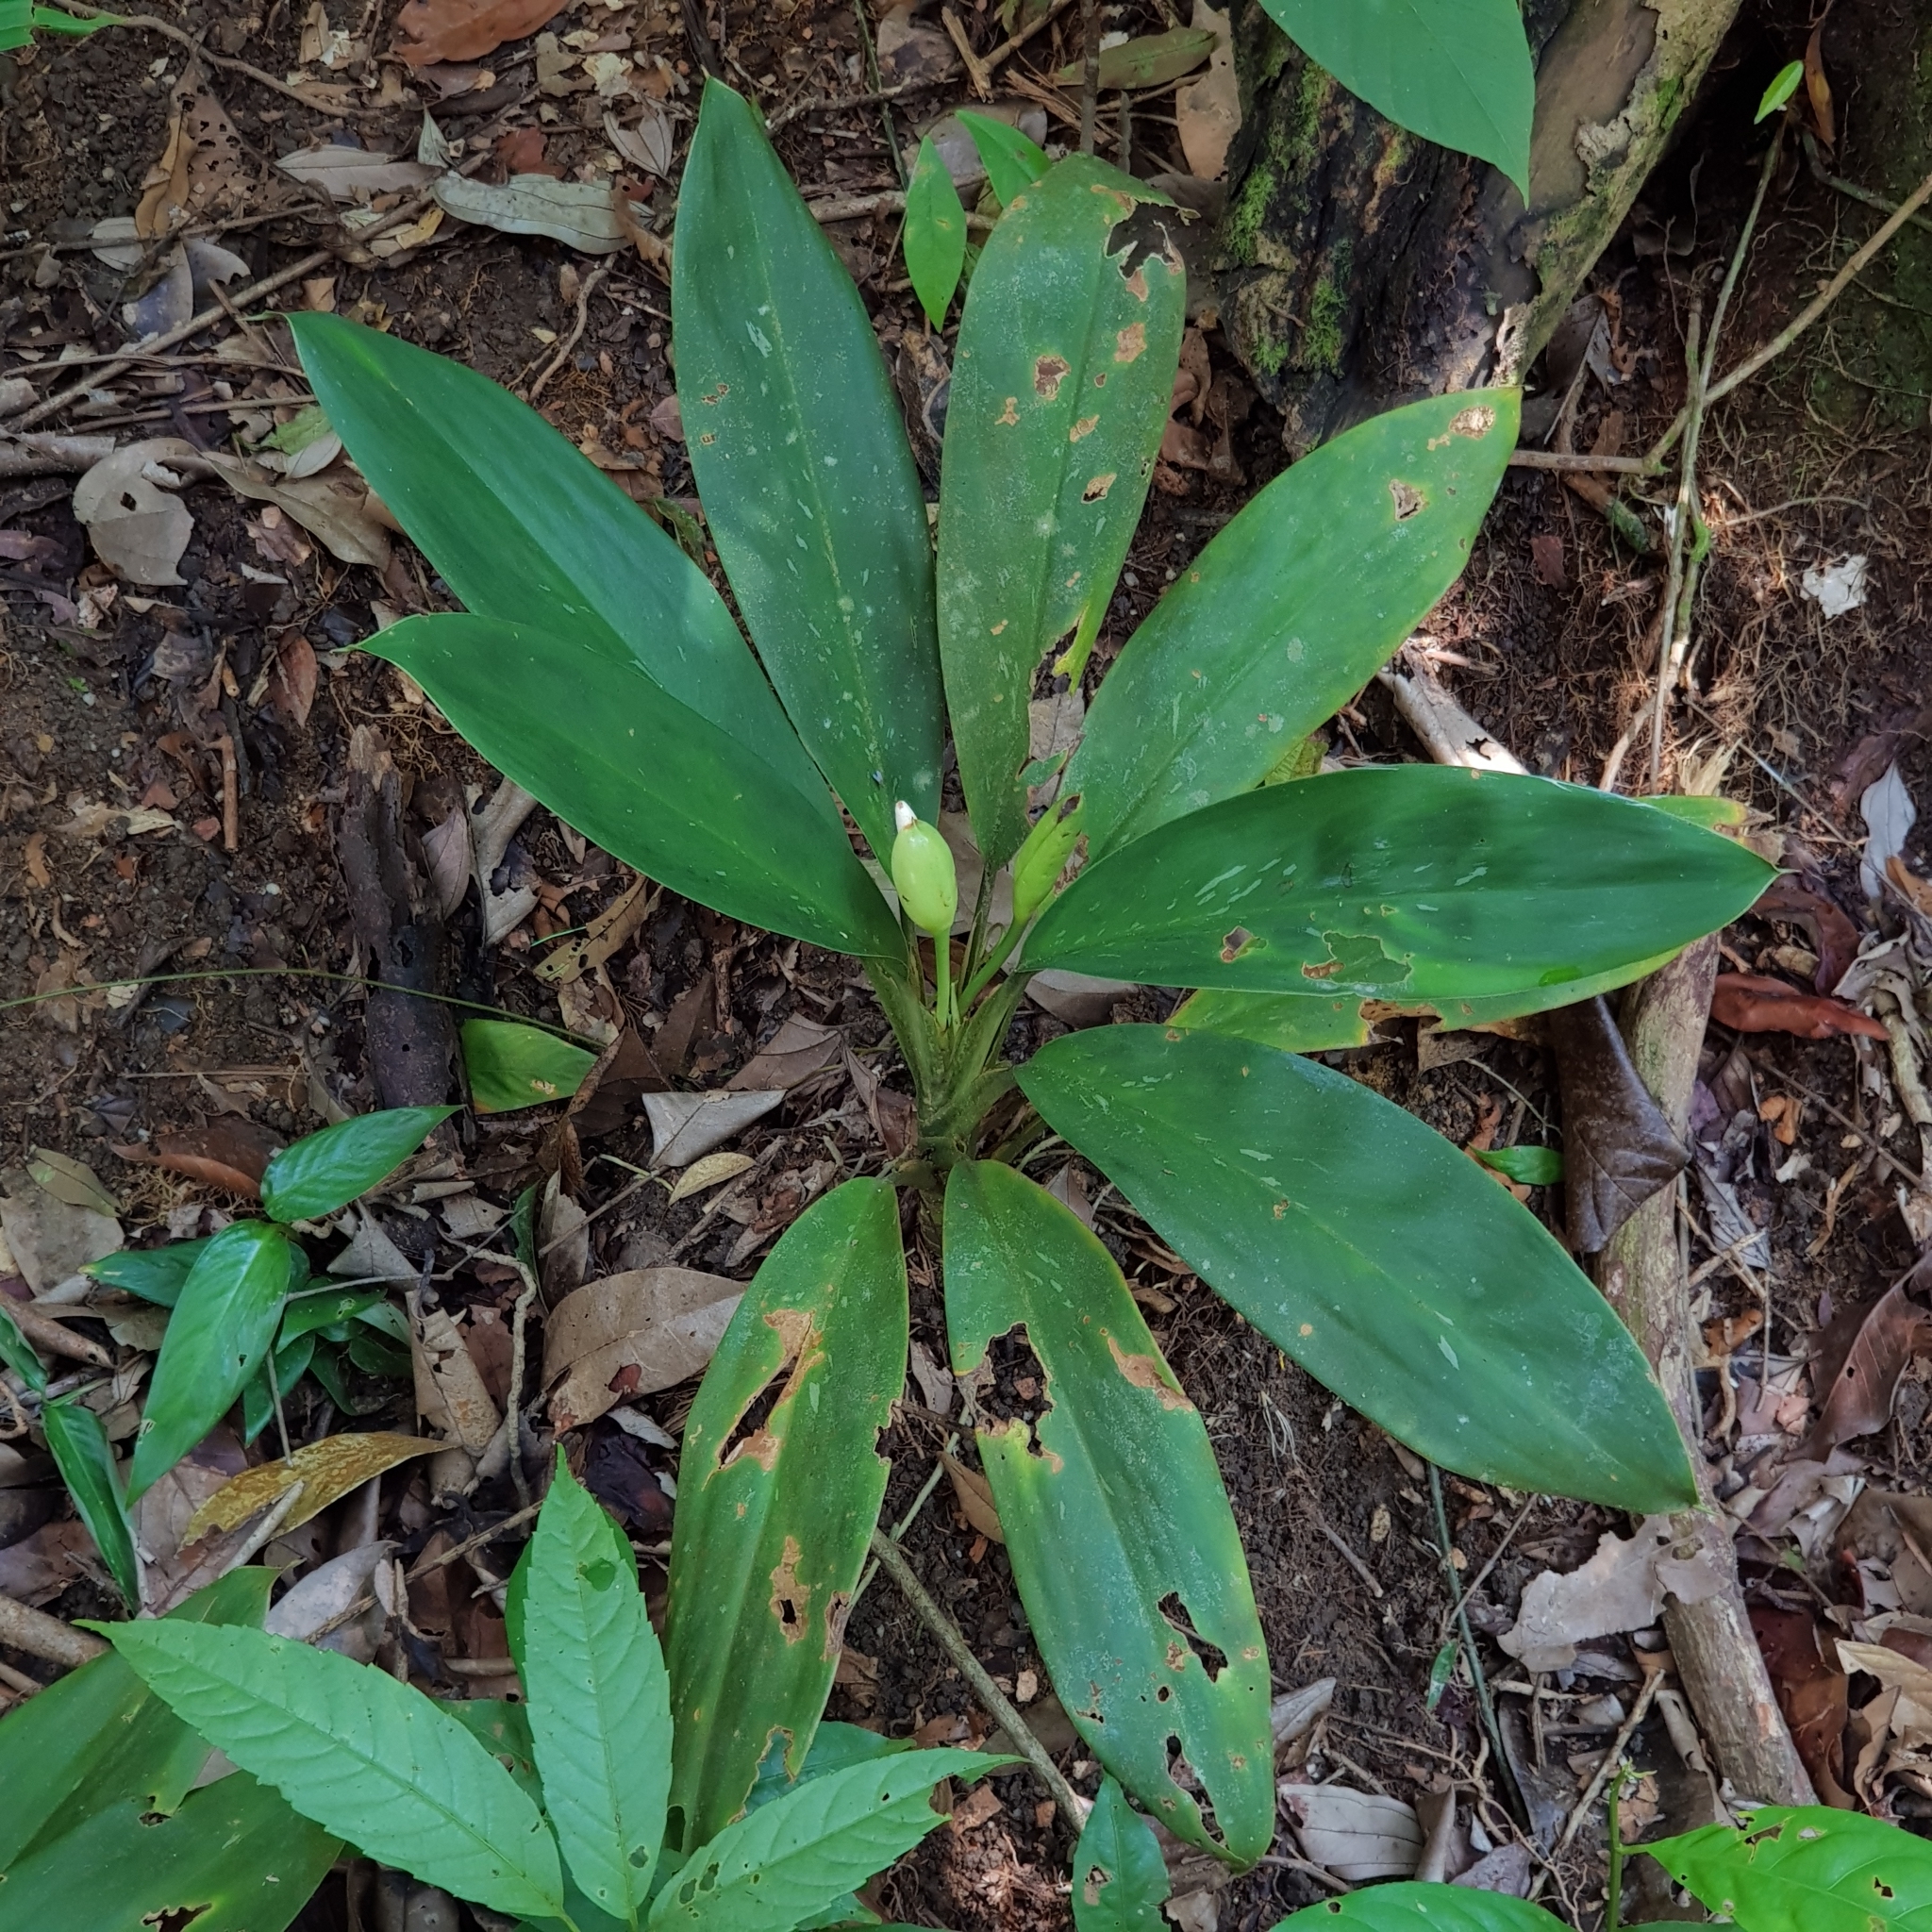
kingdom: Plantae
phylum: Tracheophyta
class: Liliopsida
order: Alismatales
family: Araceae
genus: Aglaonema
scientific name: Aglaonema nitidum
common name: Aglaonema aroid
